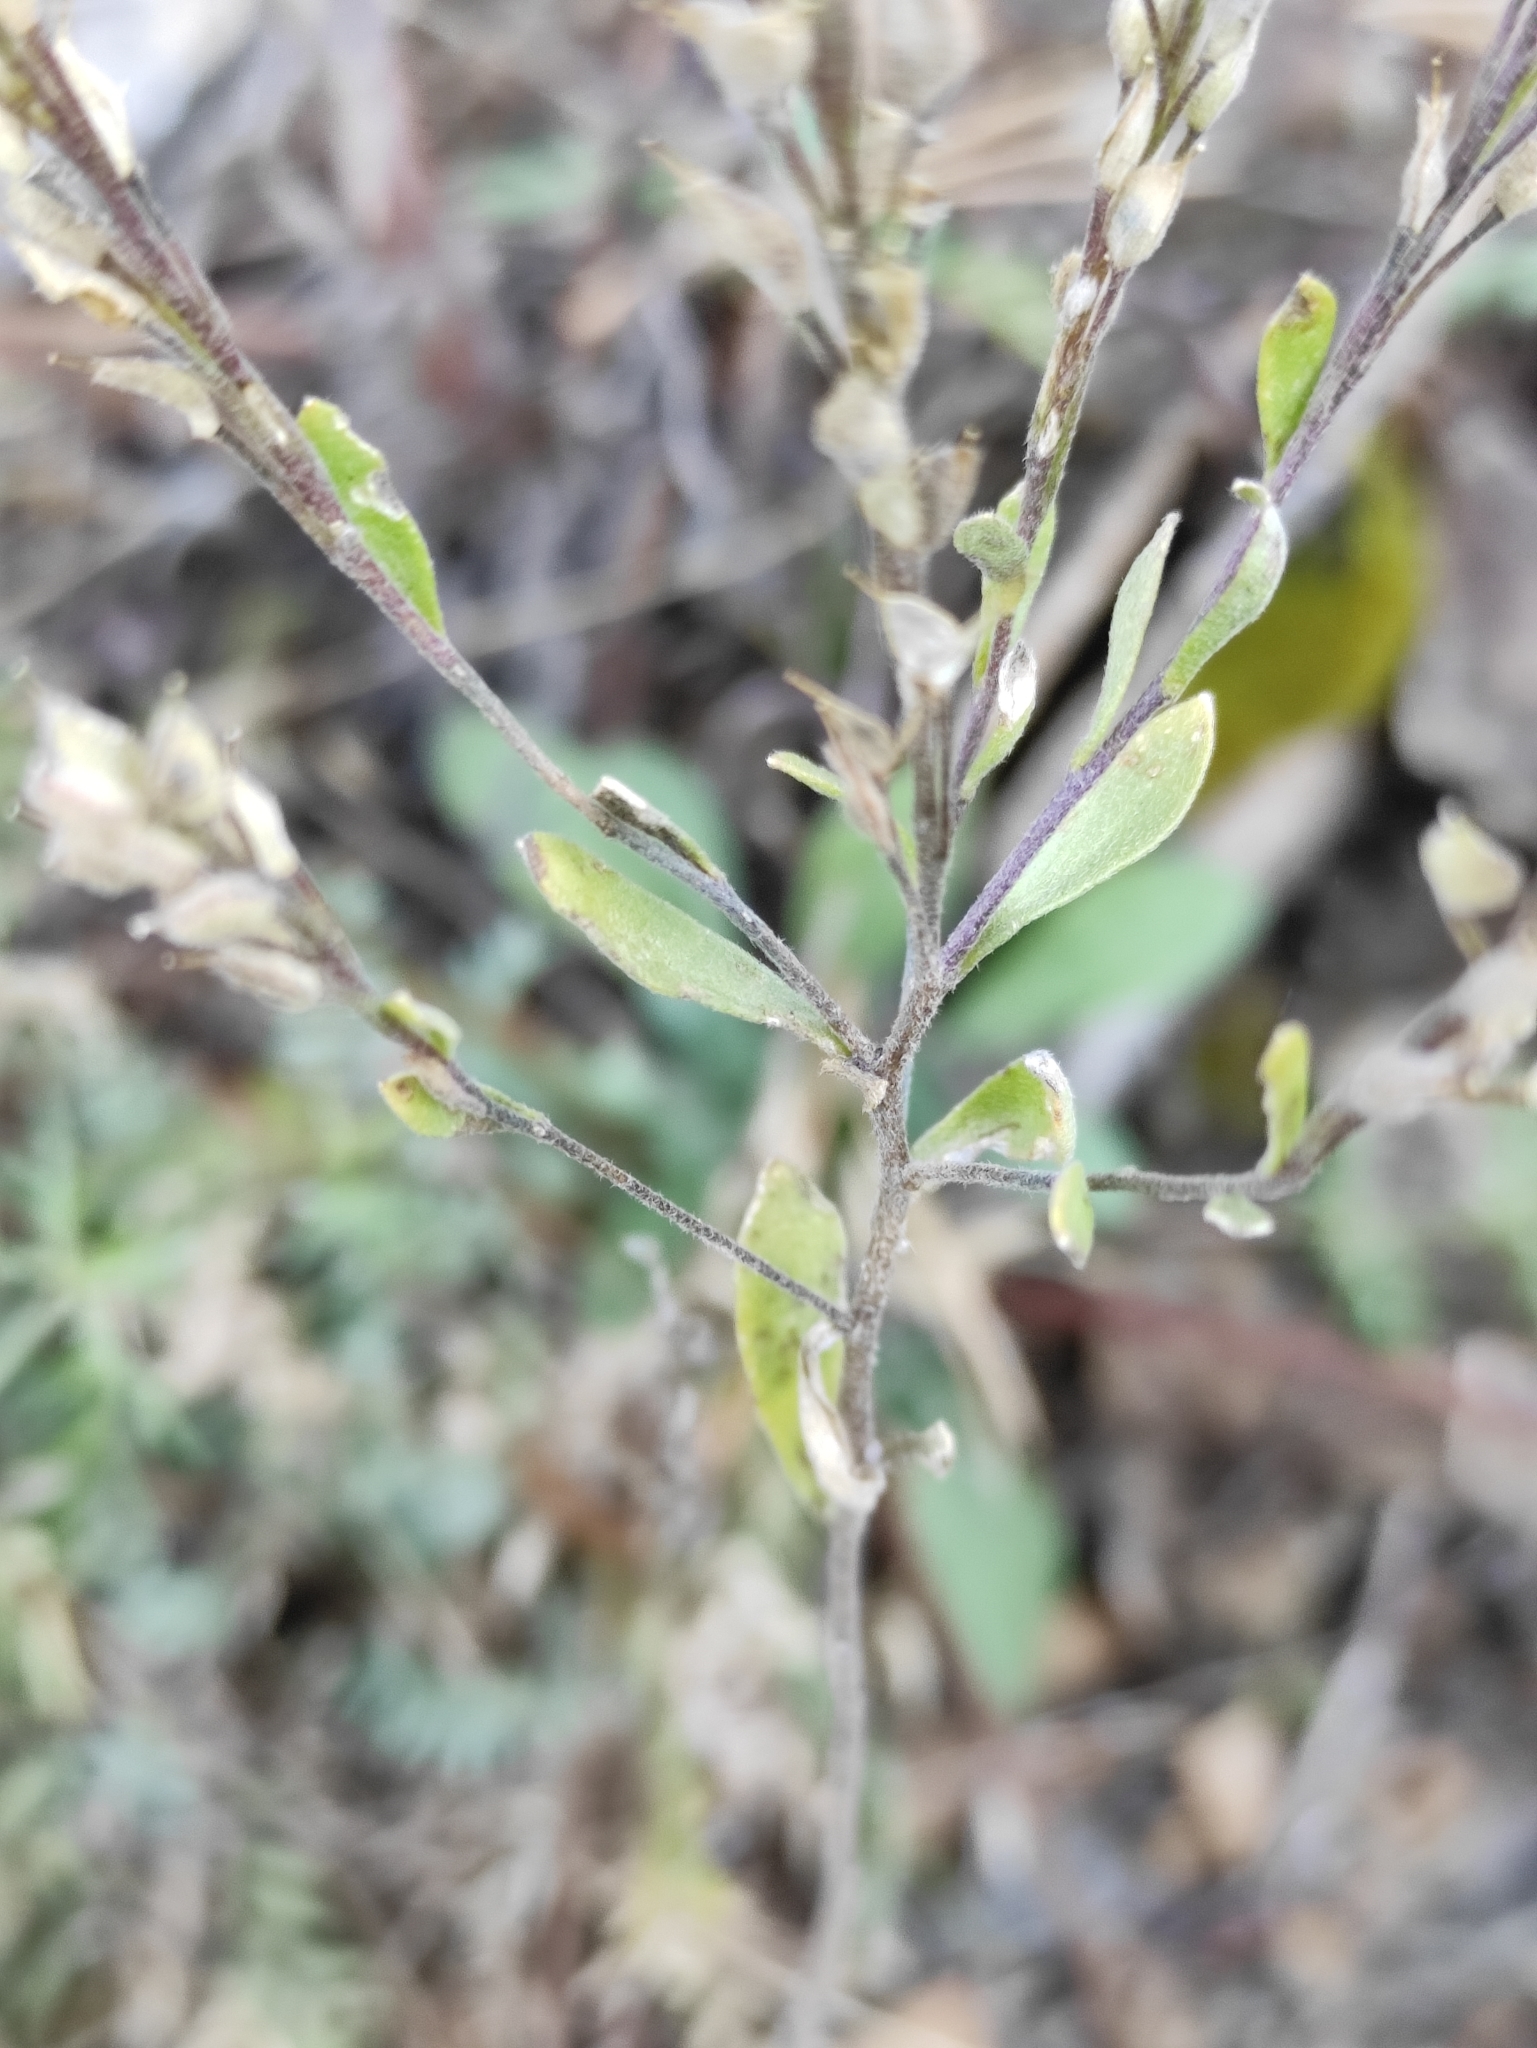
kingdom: Plantae
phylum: Tracheophyta
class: Magnoliopsida
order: Brassicales
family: Brassicaceae
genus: Stevenia
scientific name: Stevenia alyssoides
